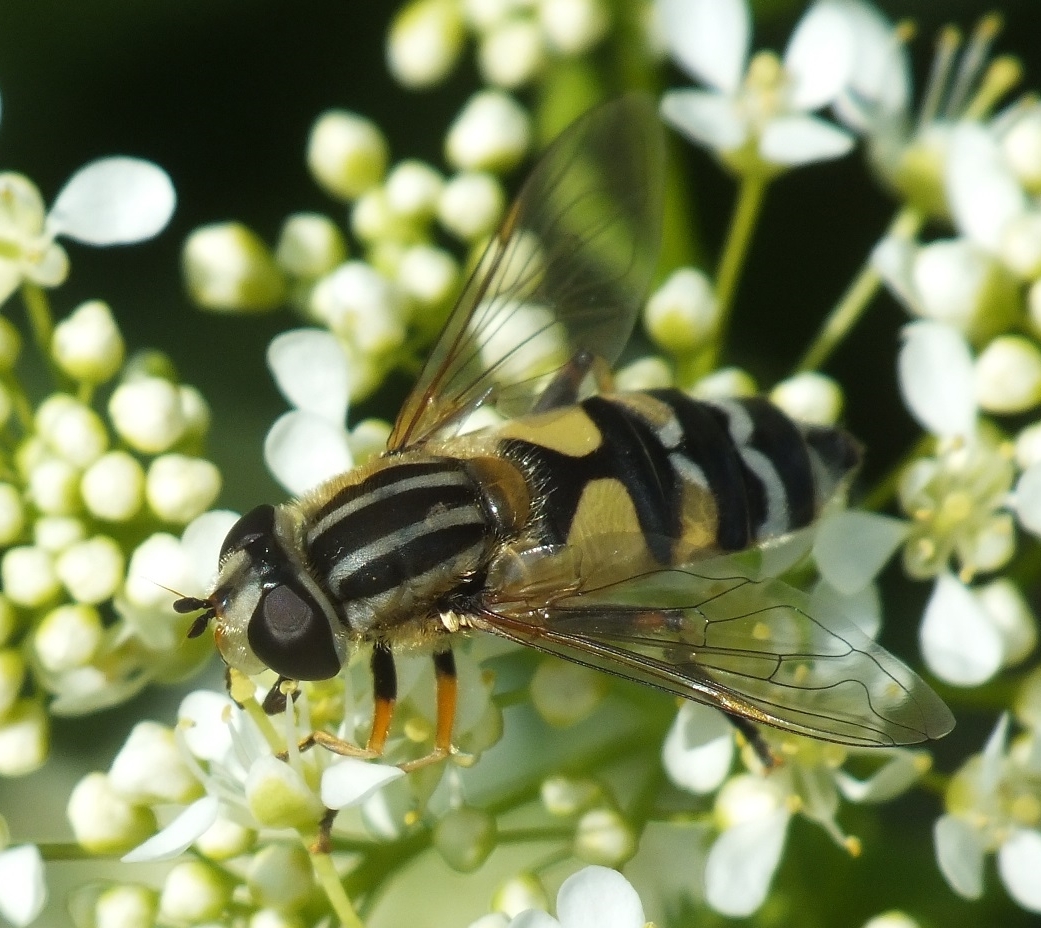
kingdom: Animalia
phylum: Arthropoda
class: Insecta
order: Diptera
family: Syrphidae
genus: Helophilus
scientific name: Helophilus trivittatus
